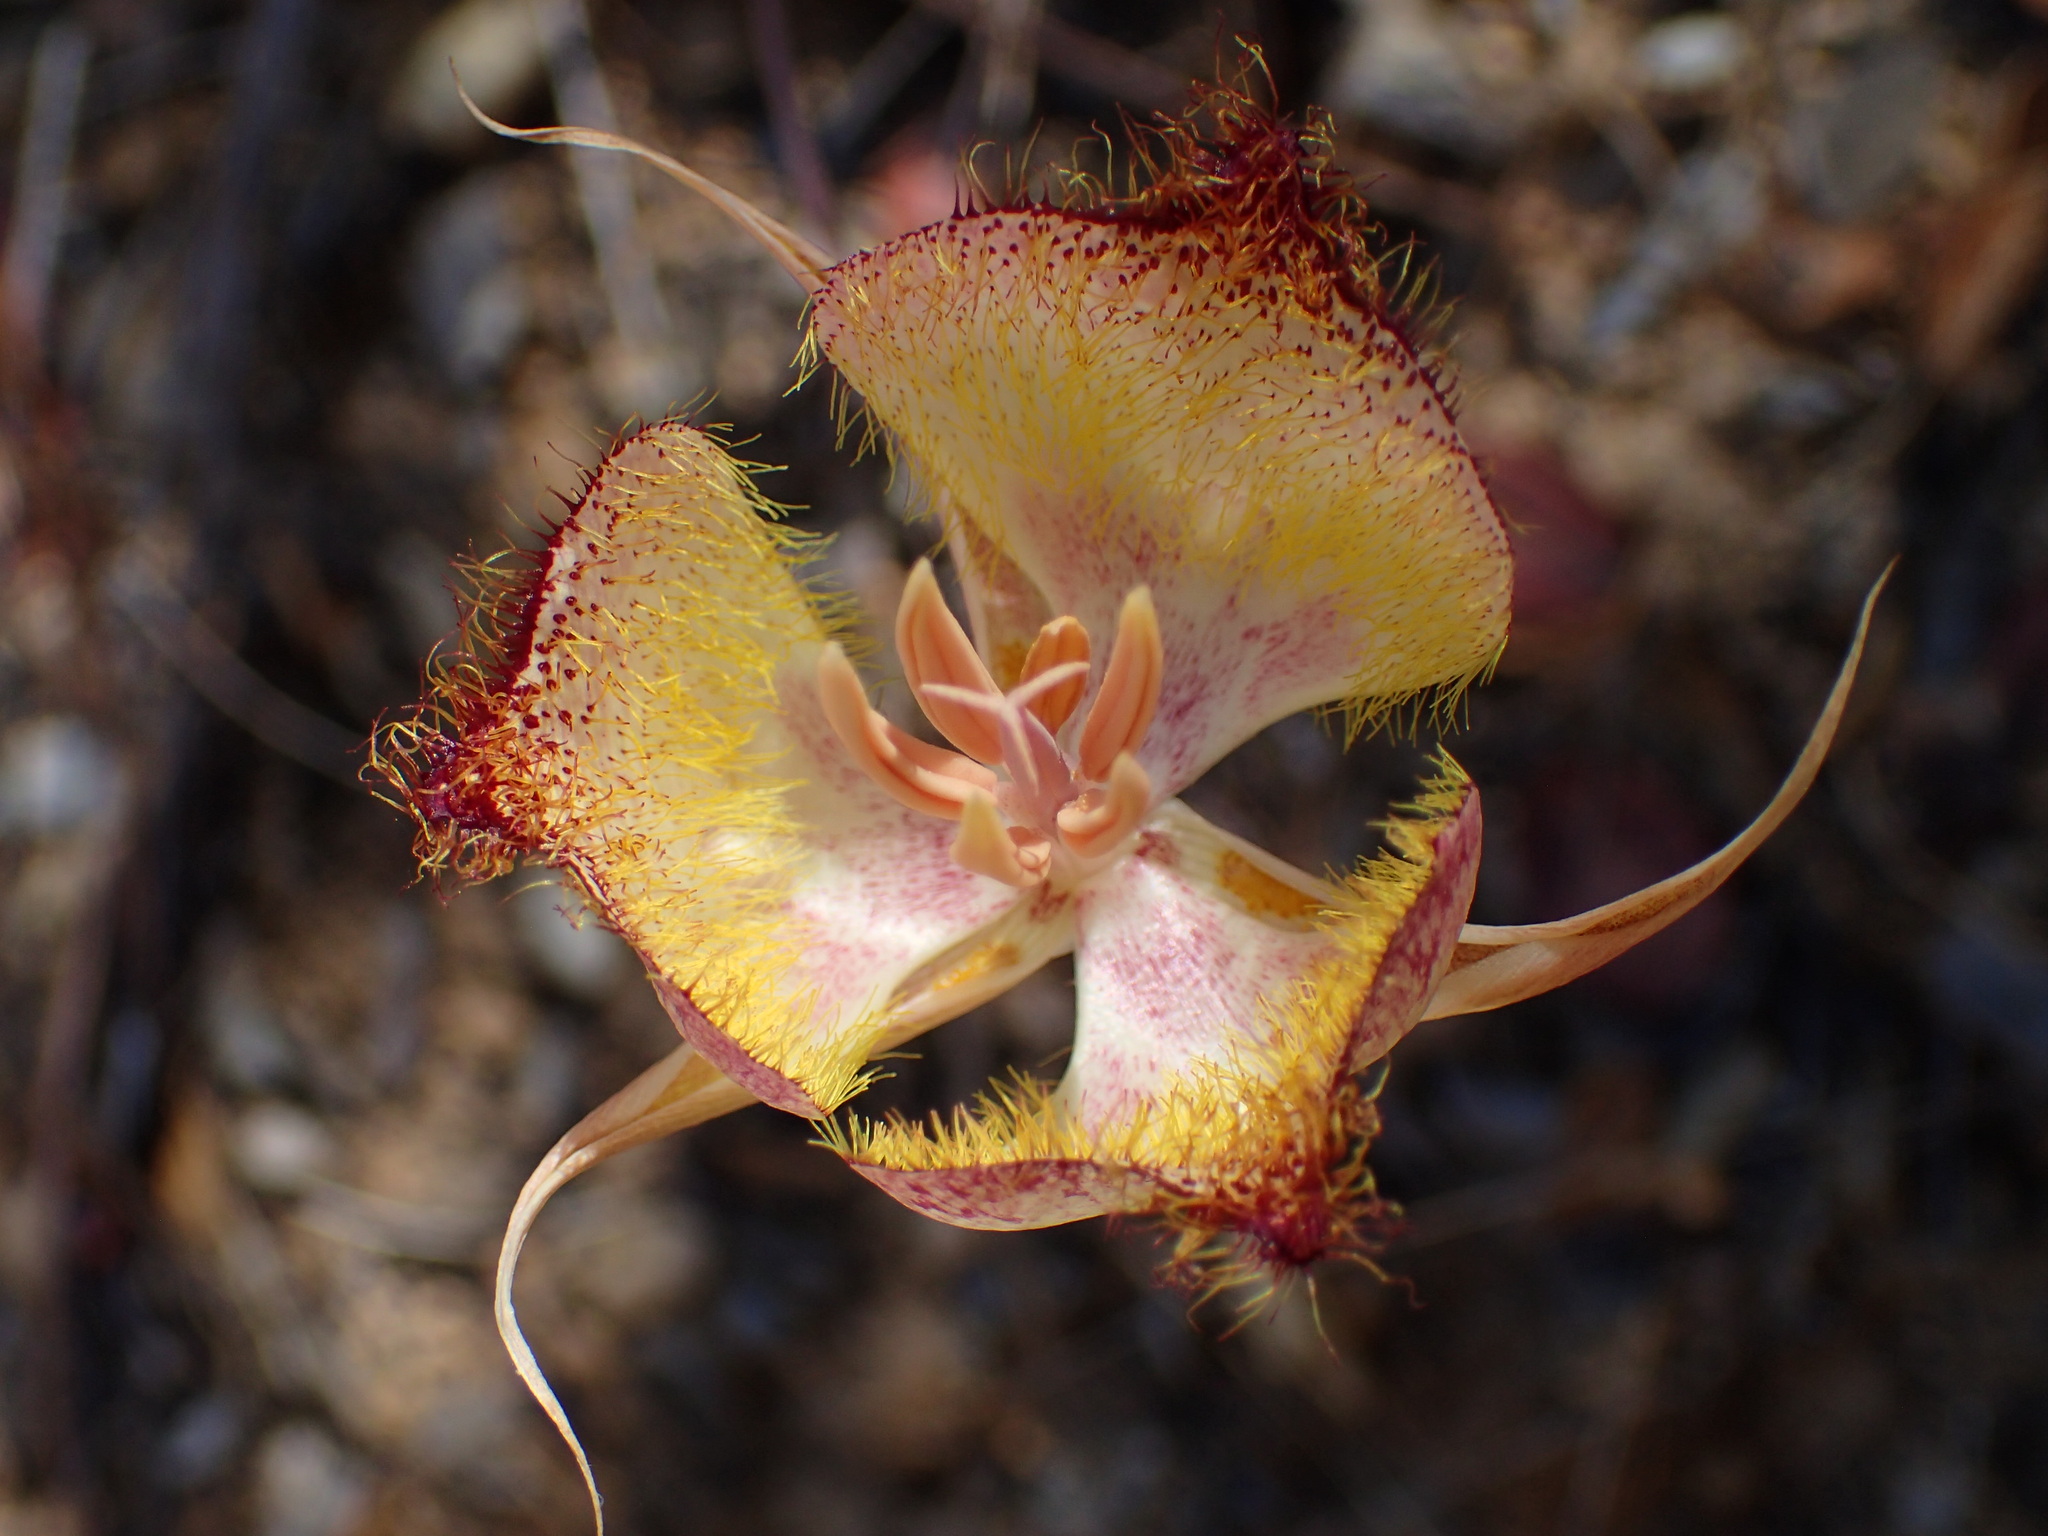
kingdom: Plantae
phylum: Tracheophyta
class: Liliopsida
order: Liliales
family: Liliaceae
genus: Calochortus
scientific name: Calochortus fimbriatus
